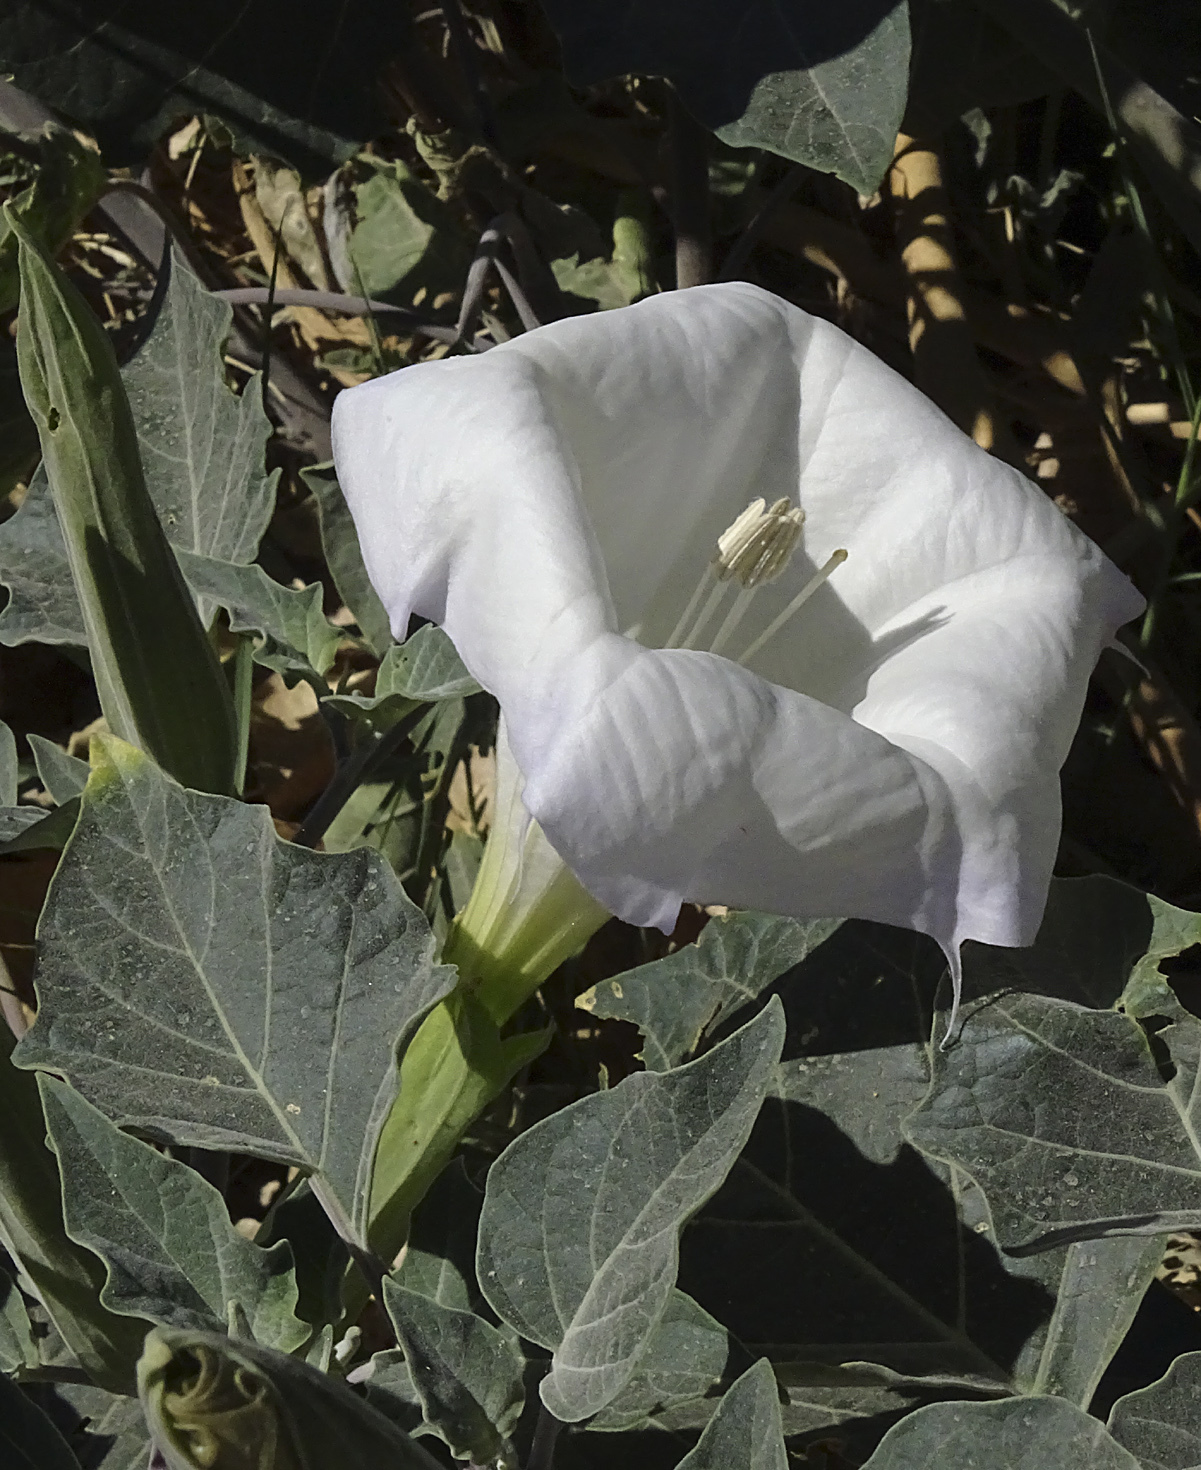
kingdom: Plantae
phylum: Tracheophyta
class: Magnoliopsida
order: Solanales
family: Solanaceae
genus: Datura
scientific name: Datura wrightii
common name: Sacred thorn-apple
